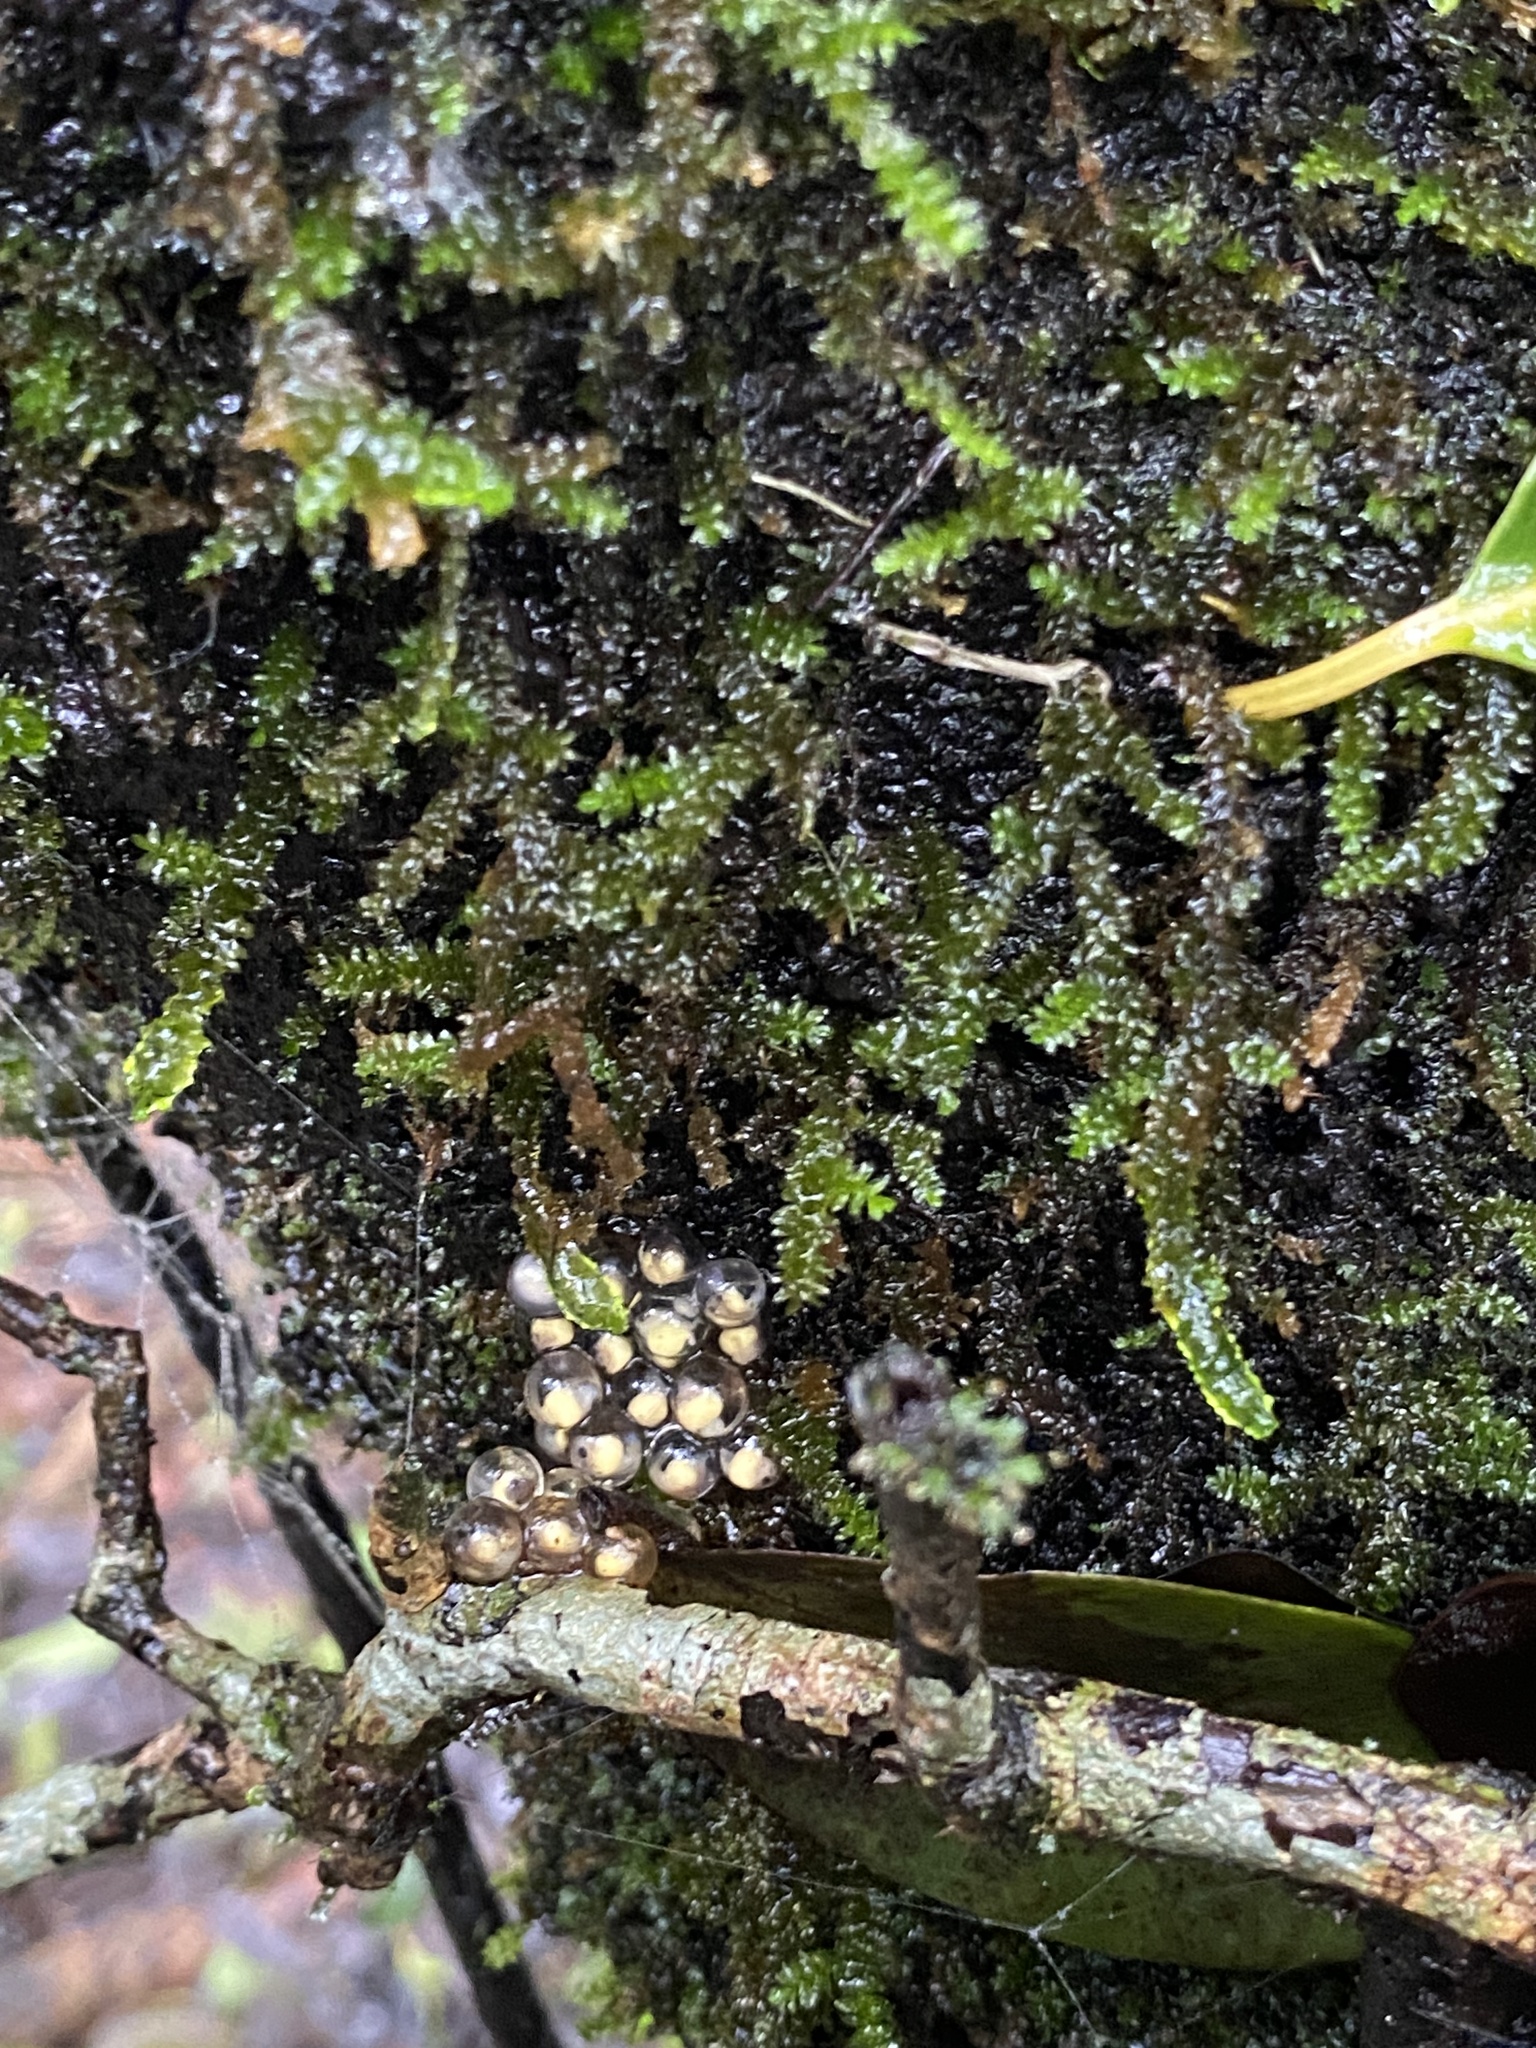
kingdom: Animalia
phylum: Chordata
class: Amphibia
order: Anura
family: Rhacophoridae
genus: Pseudophilautus
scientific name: Pseudophilautus amboli
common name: Amboli bush frog
